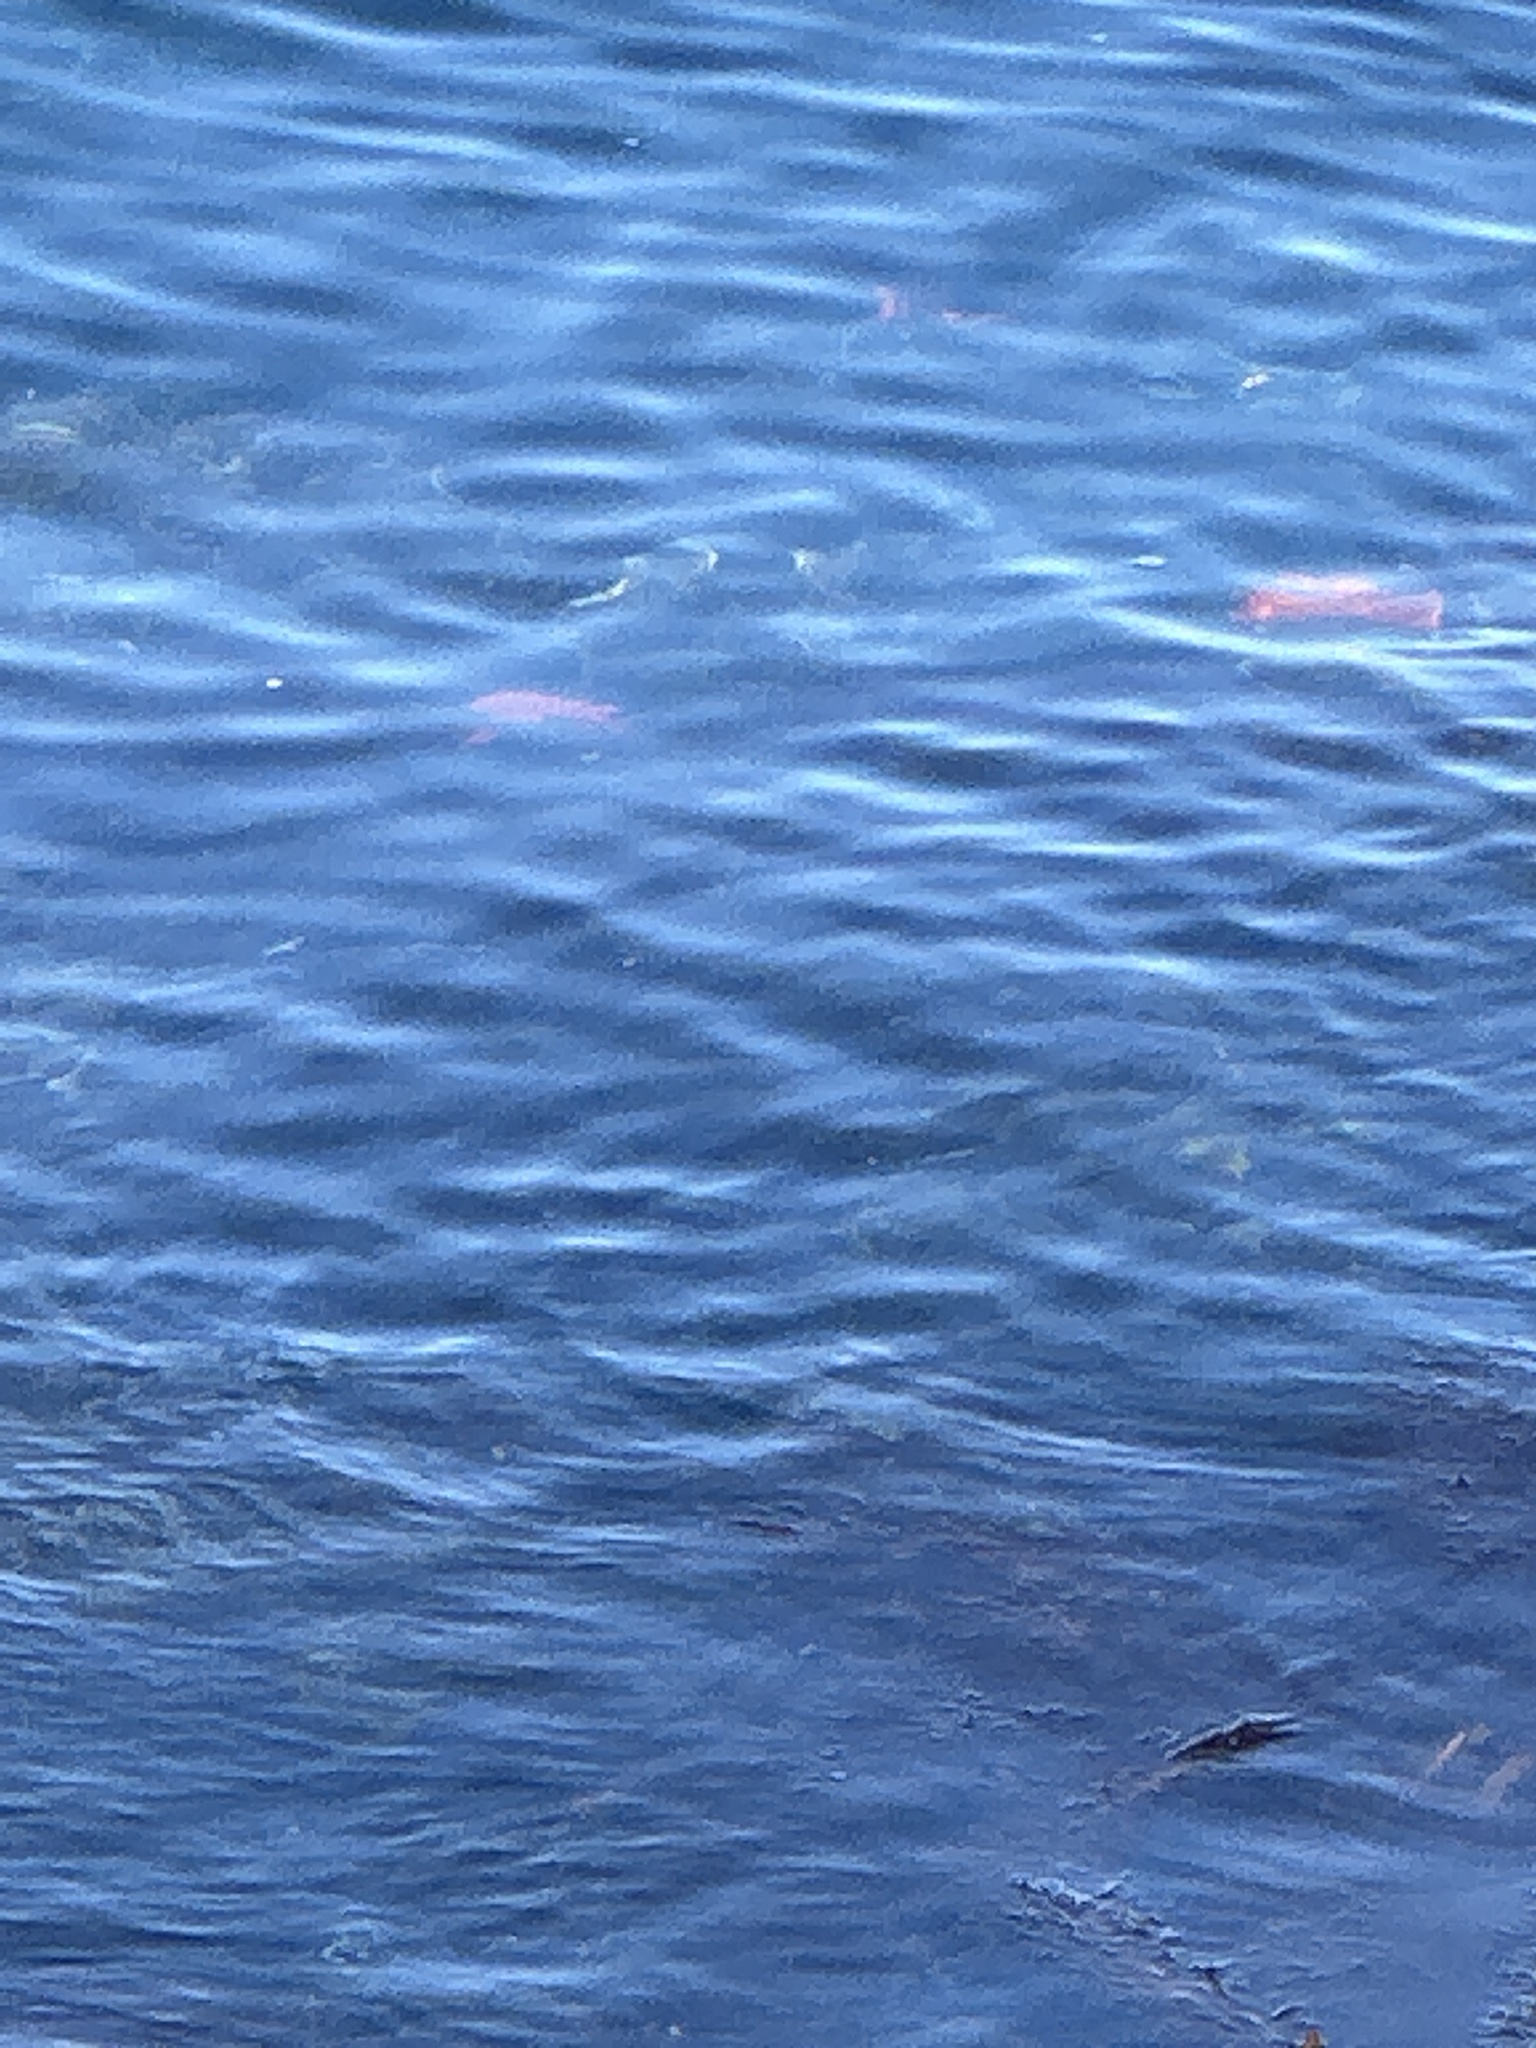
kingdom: Animalia
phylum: Chordata
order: Perciformes
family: Pomacentridae
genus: Hypsypops
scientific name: Hypsypops rubicundus
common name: Garibaldi
